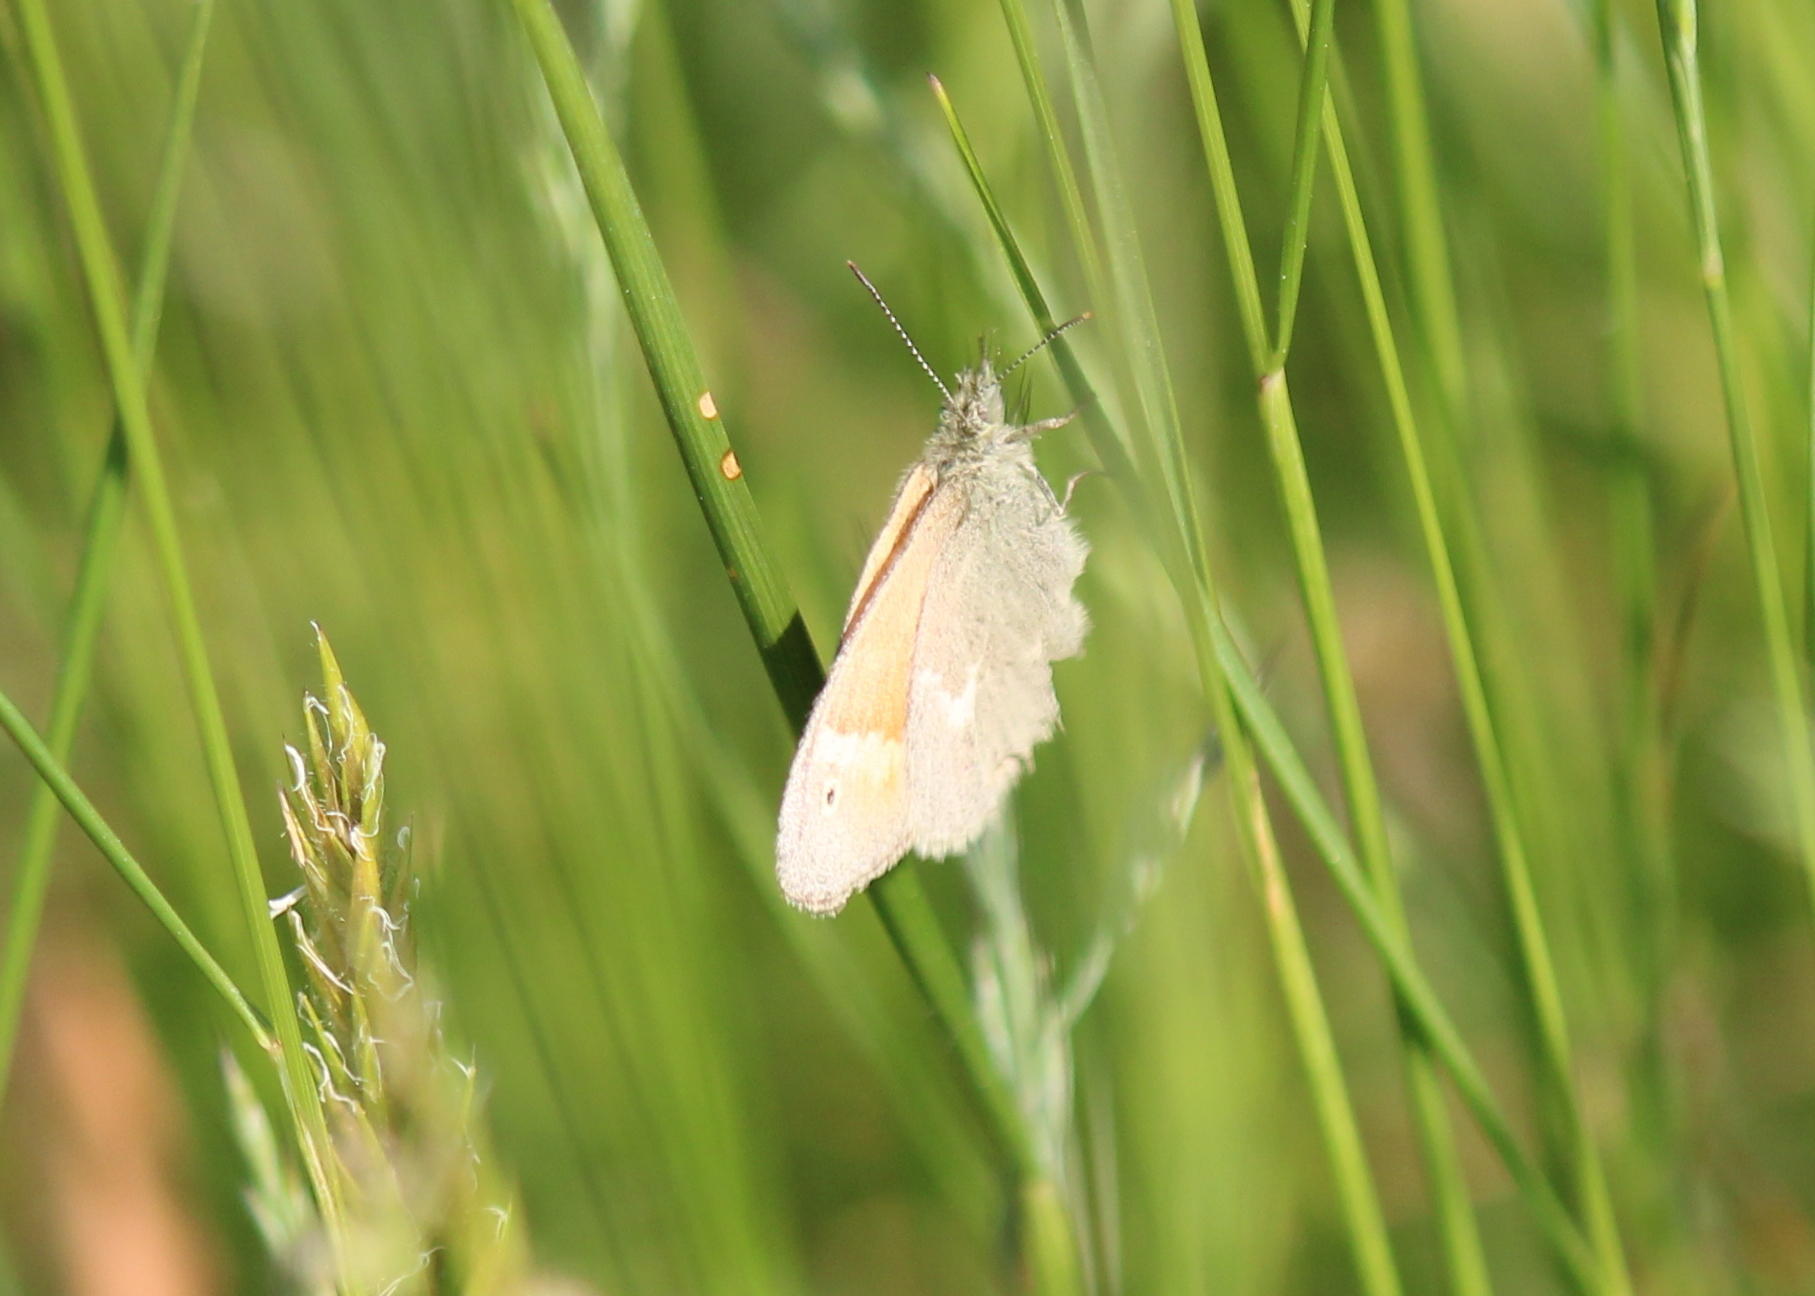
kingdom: Animalia
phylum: Arthropoda
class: Insecta
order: Lepidoptera
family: Nymphalidae
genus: Coenonympha
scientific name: Coenonympha california
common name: Common ringlet
